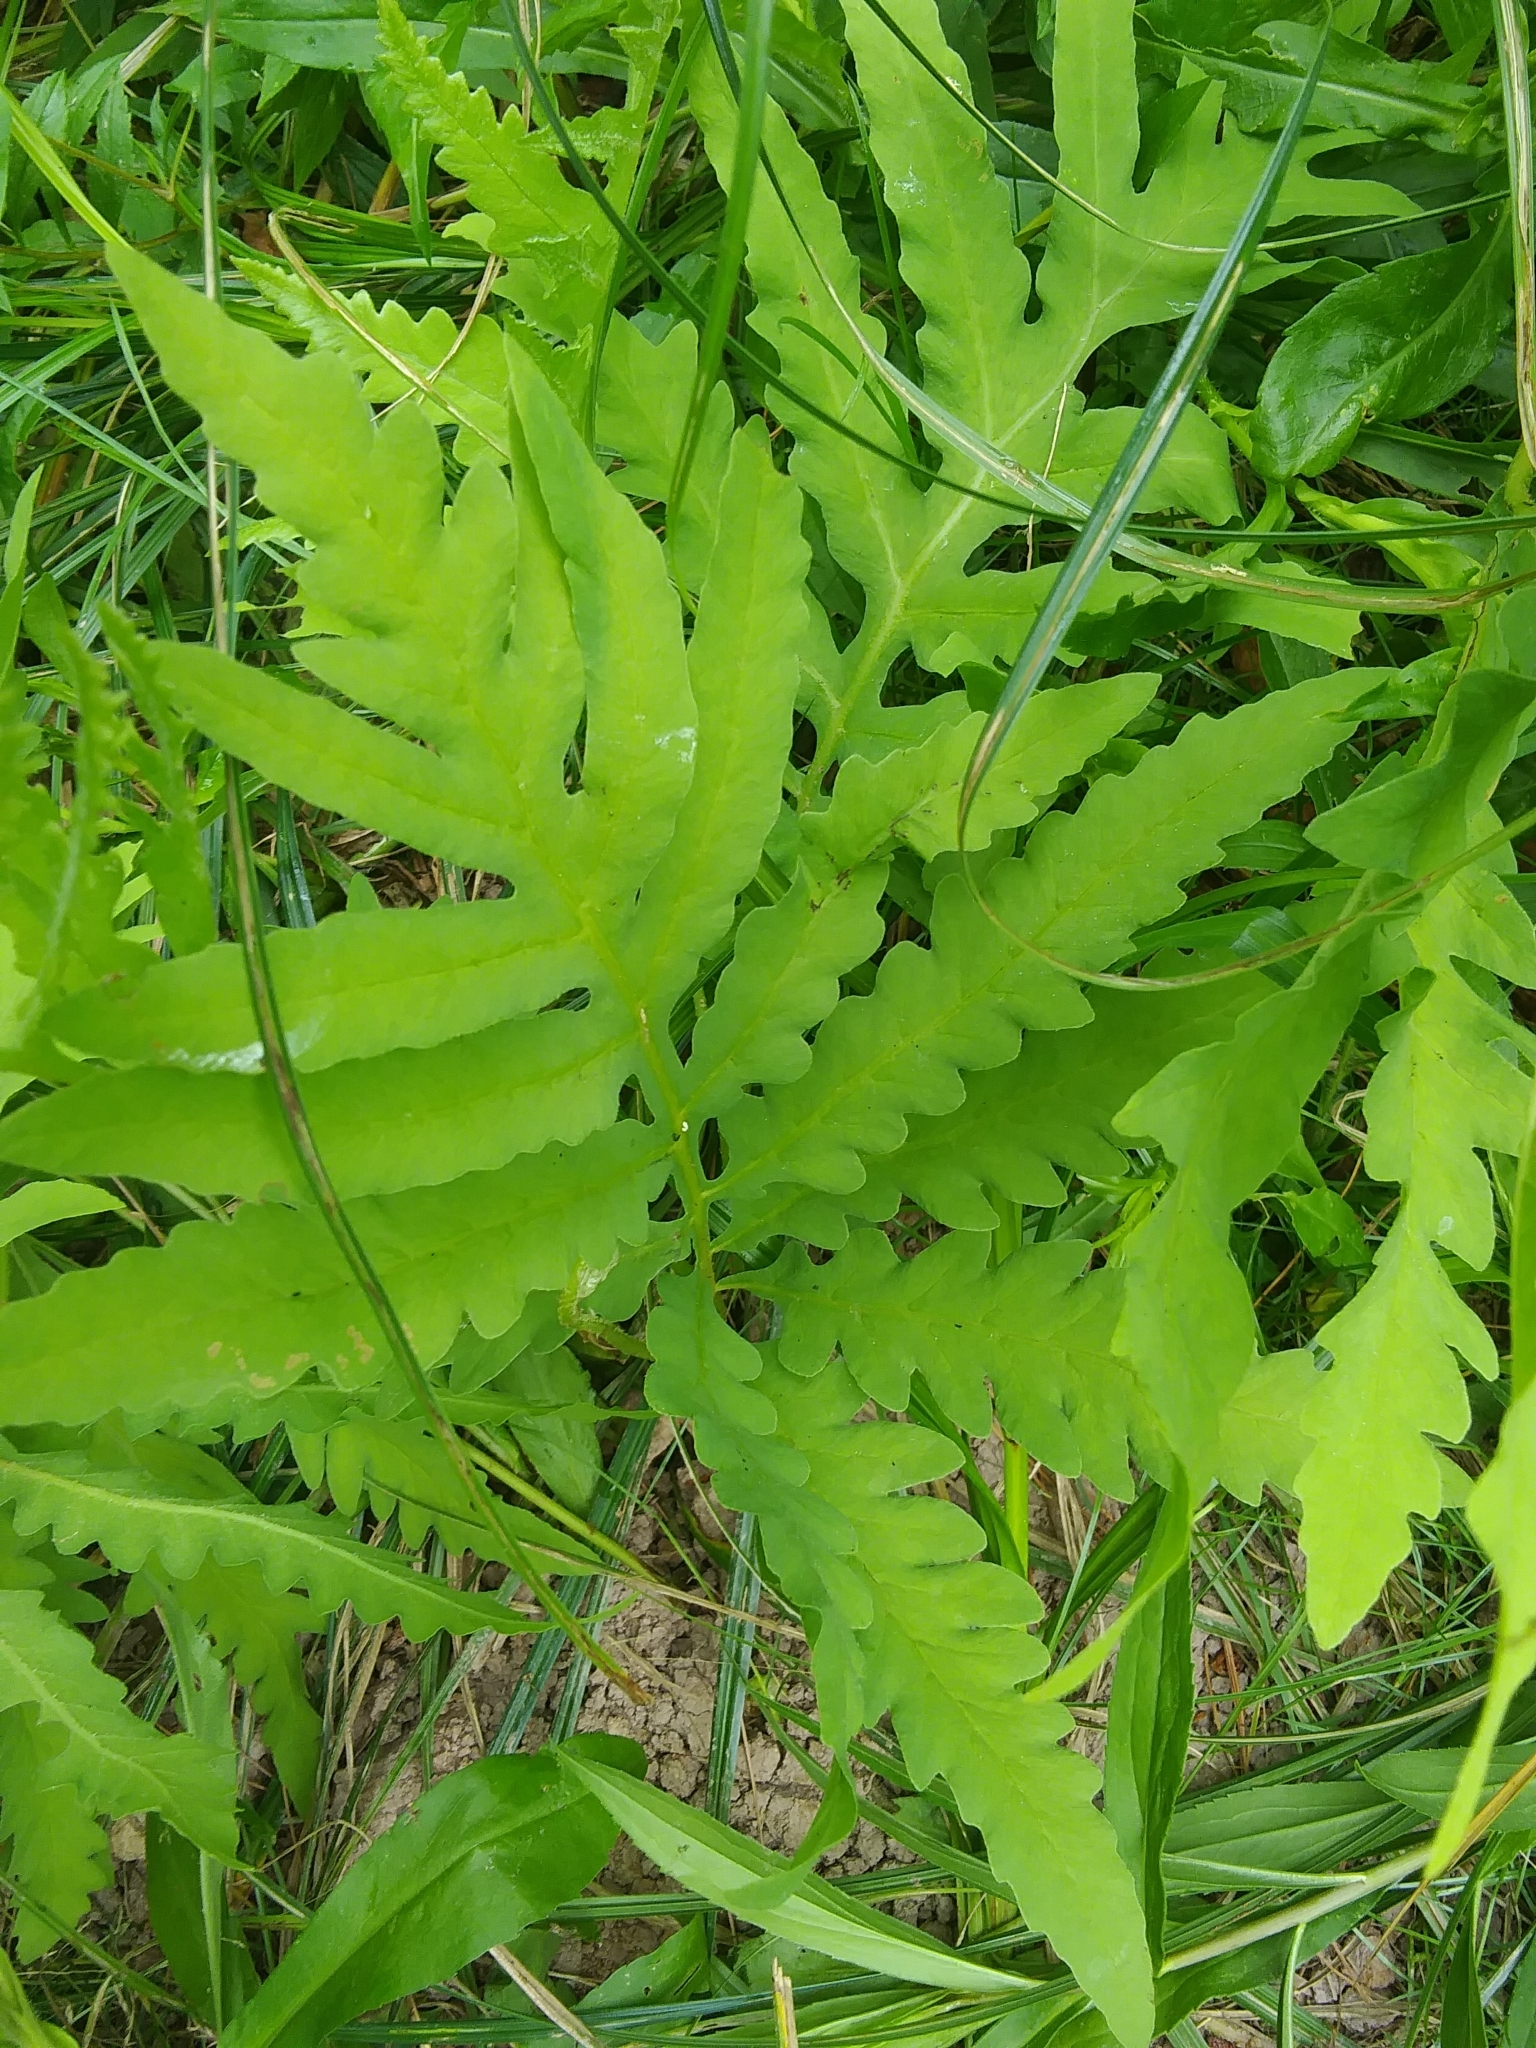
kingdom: Plantae
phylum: Tracheophyta
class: Polypodiopsida
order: Polypodiales
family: Onocleaceae
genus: Onoclea
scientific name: Onoclea sensibilis
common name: Sensitive fern
